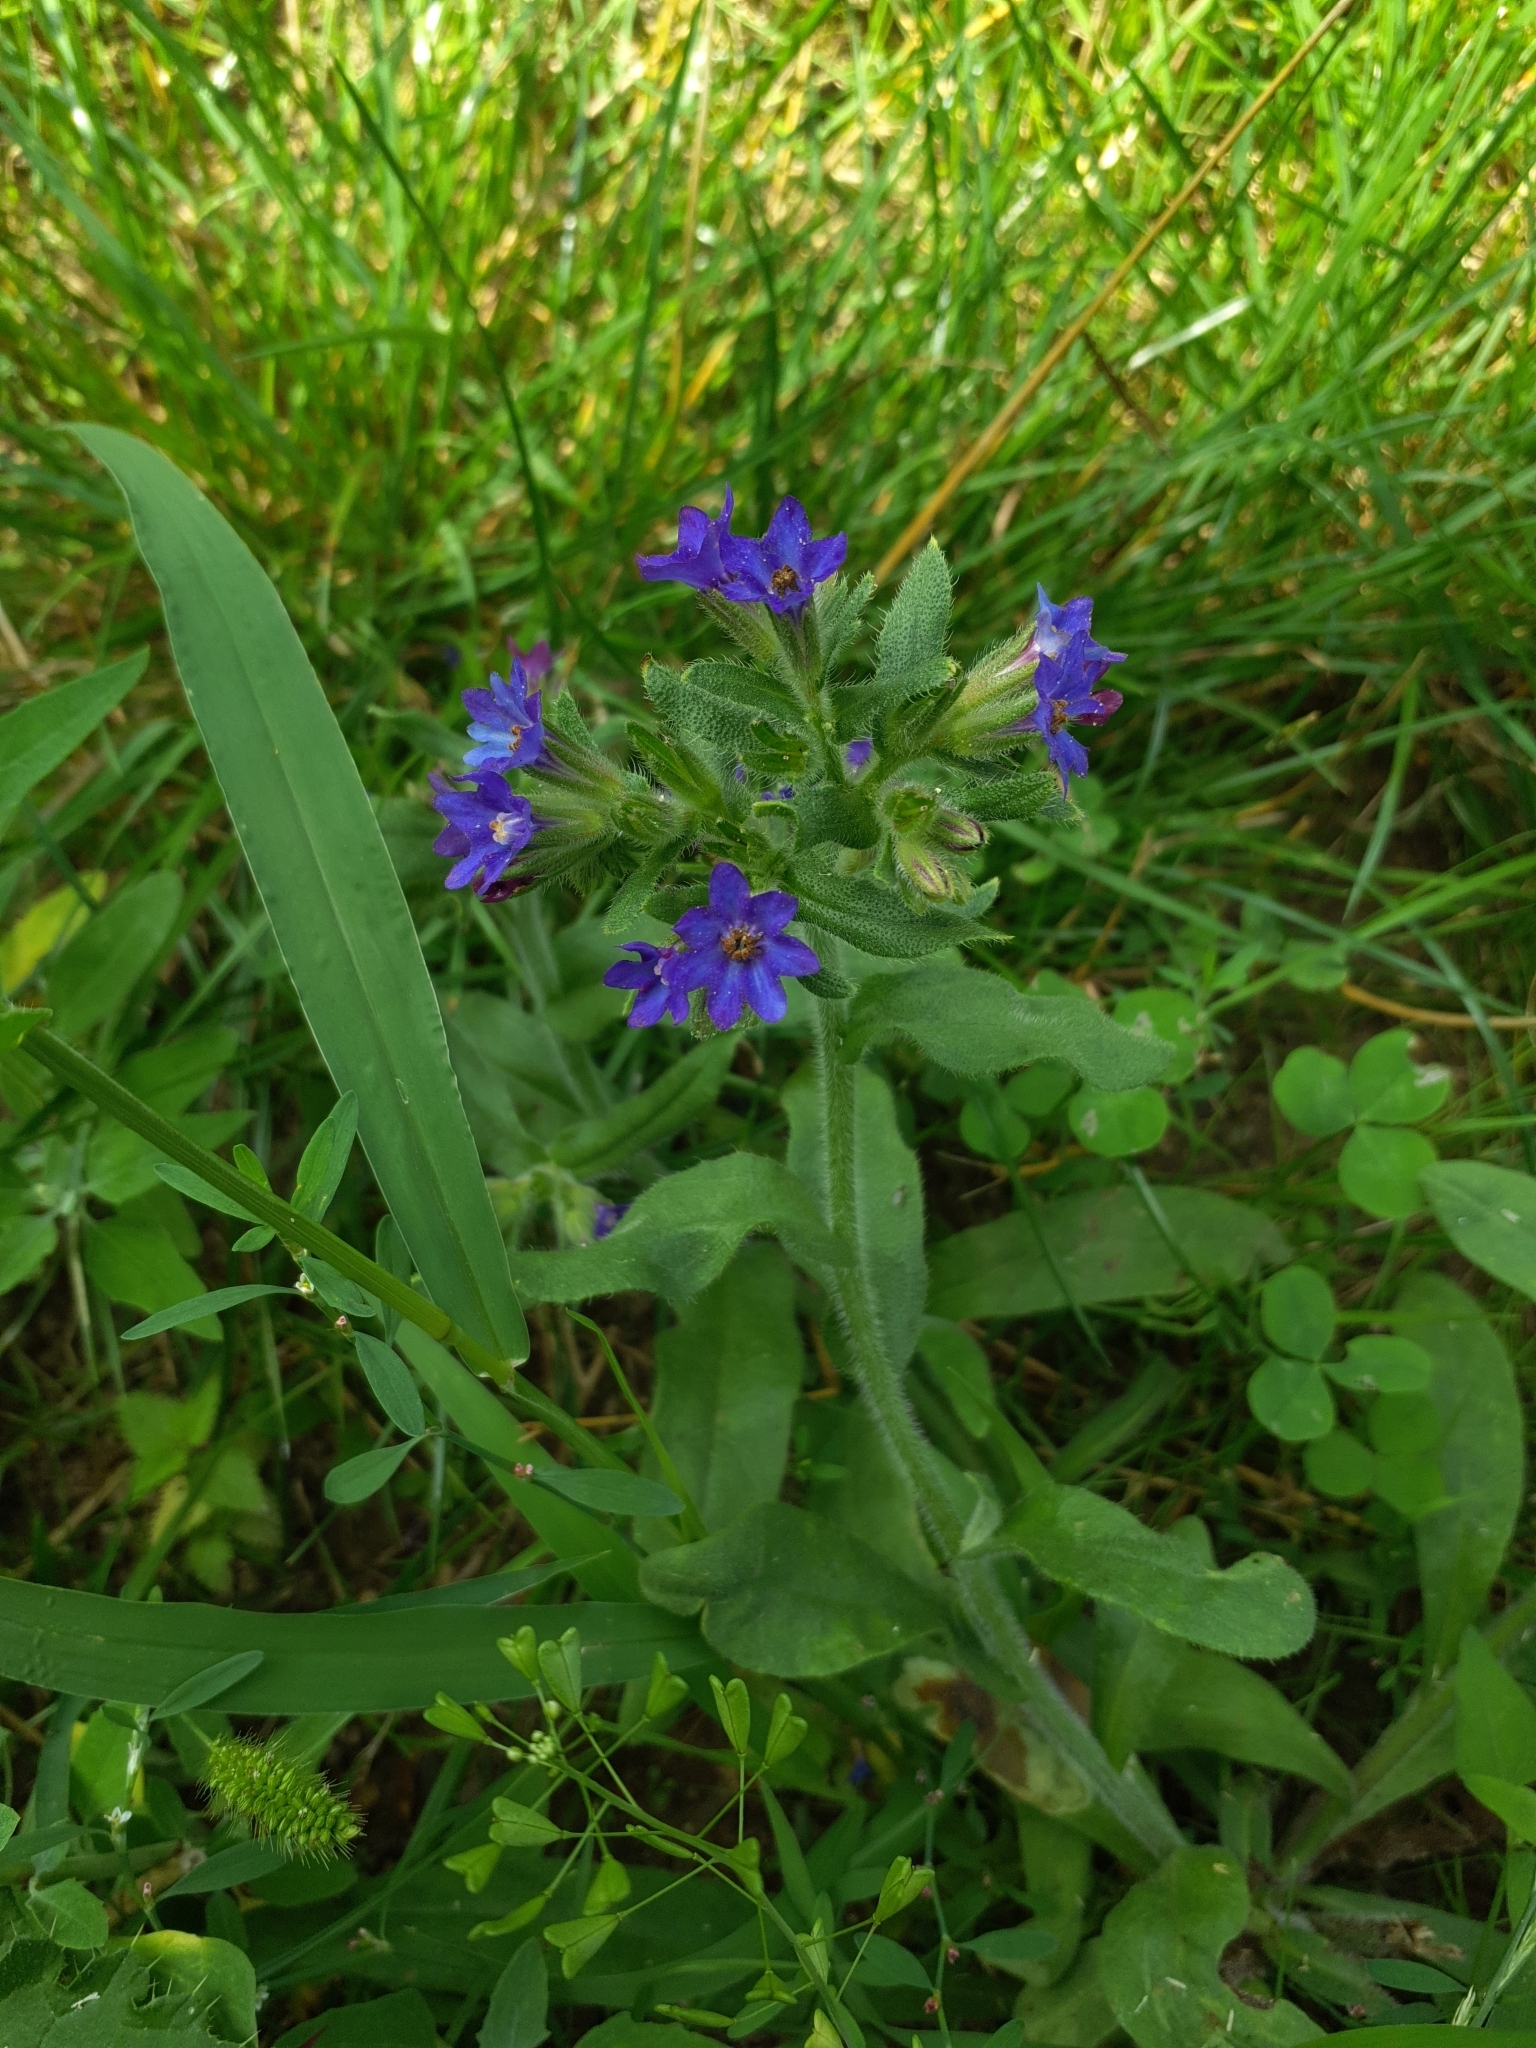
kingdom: Plantae
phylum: Tracheophyta
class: Magnoliopsida
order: Boraginales
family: Boraginaceae
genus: Anchusa
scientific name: Anchusa officinalis
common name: Alkanet
